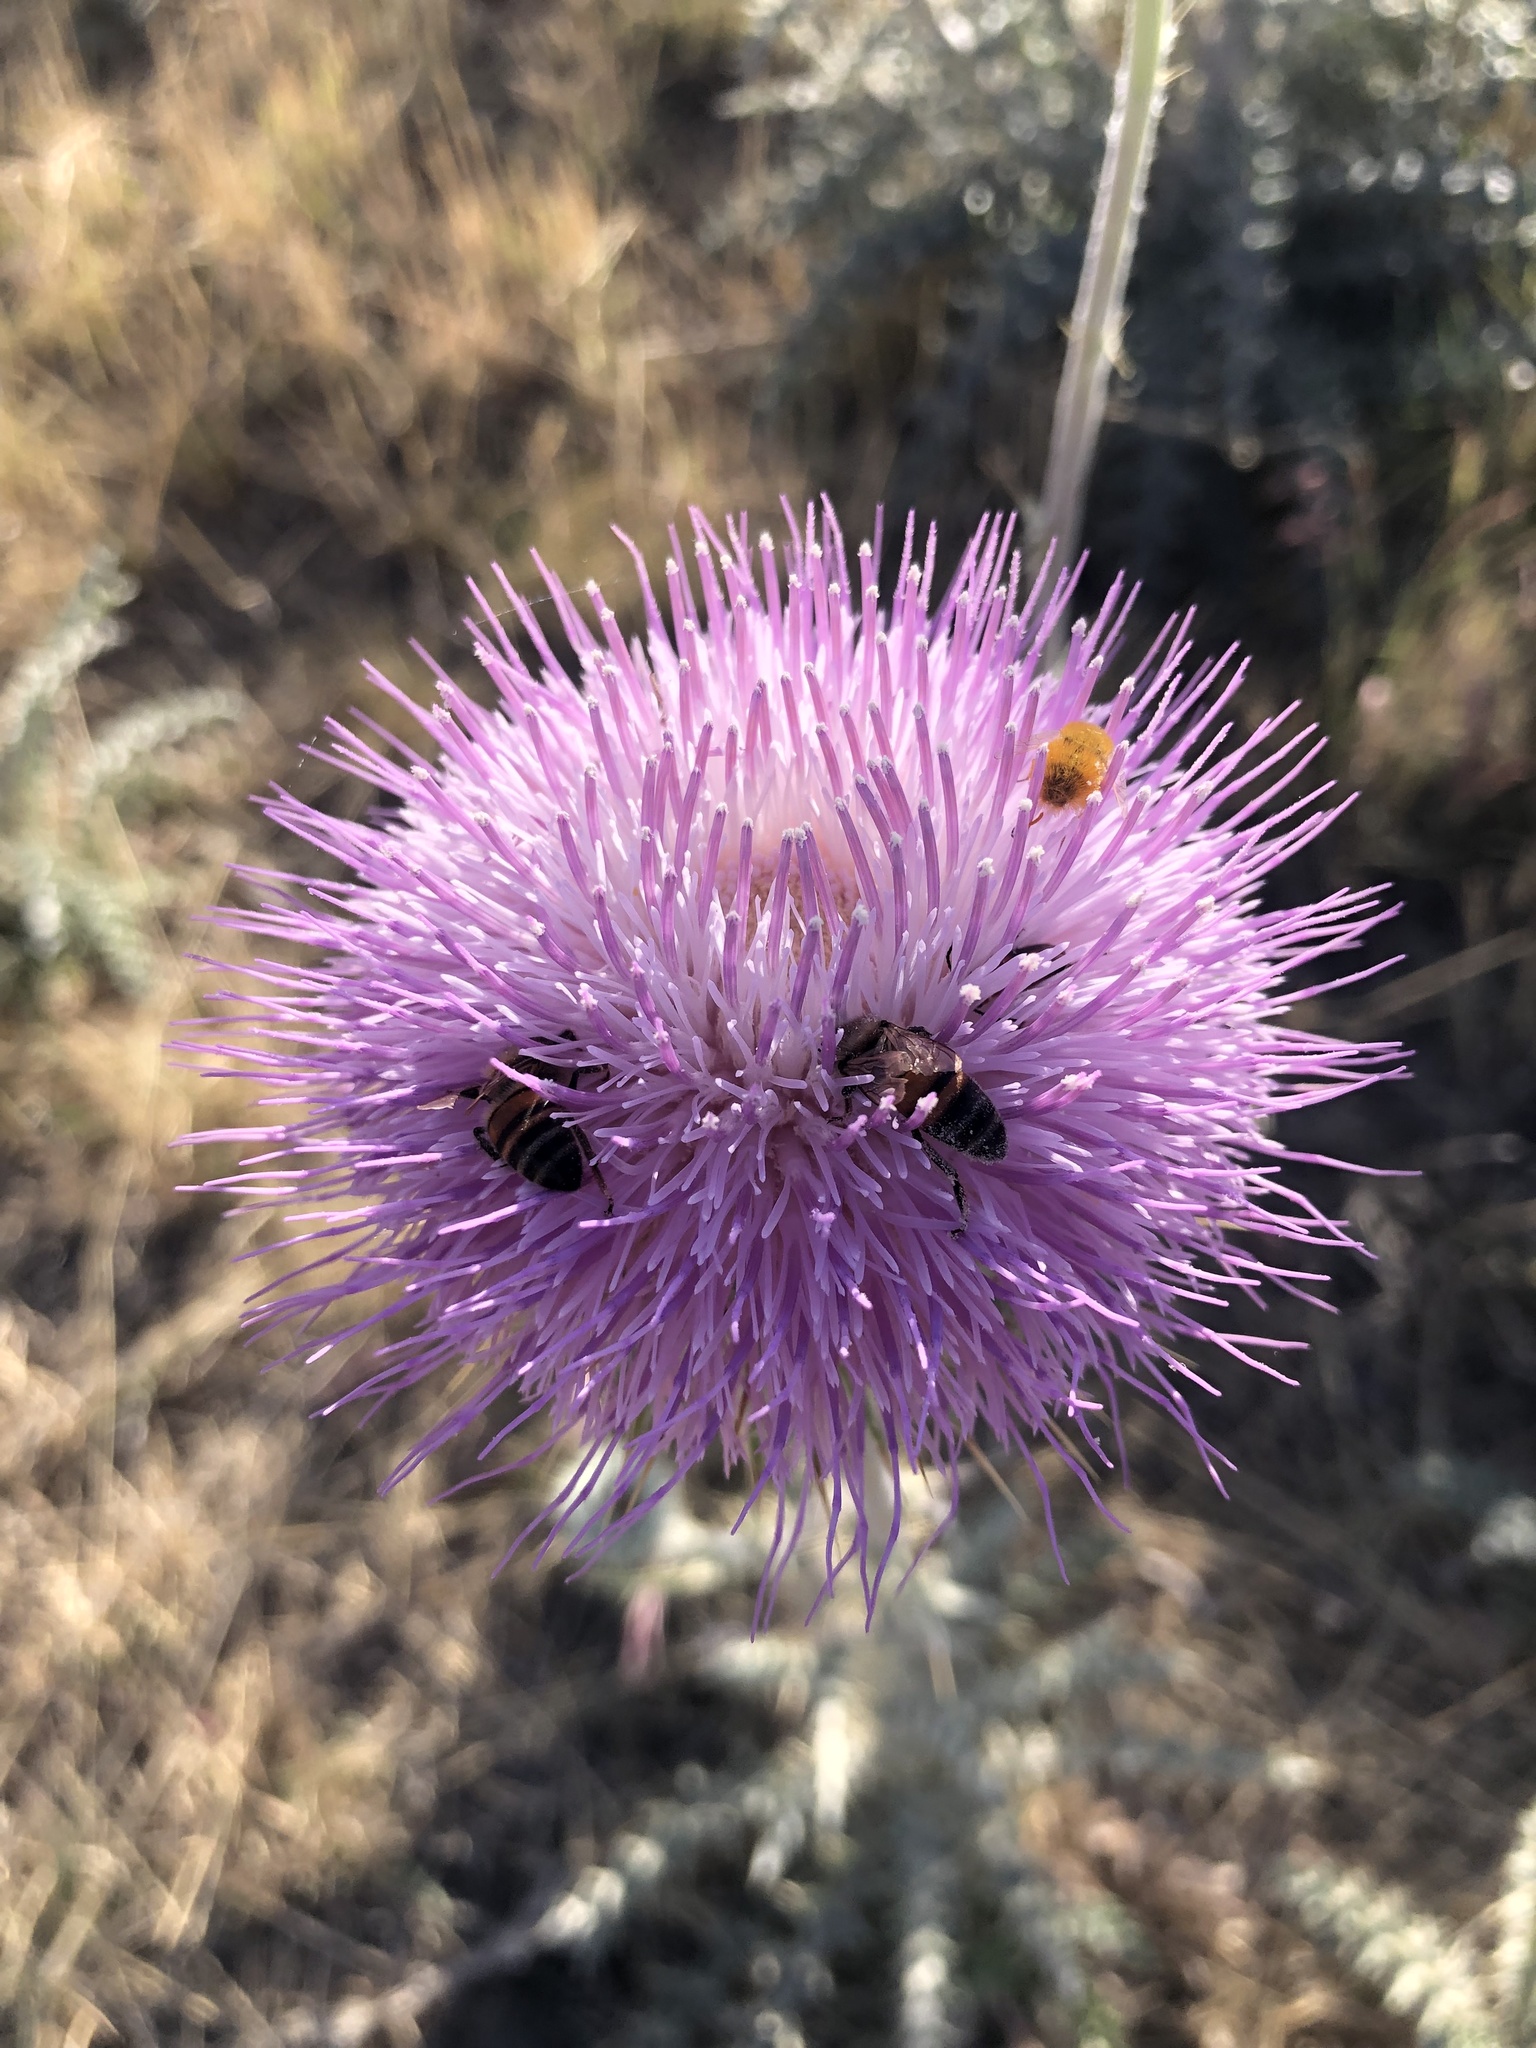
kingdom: Animalia
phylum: Arthropoda
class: Insecta
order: Hymenoptera
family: Apidae
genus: Apis
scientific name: Apis mellifera
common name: Honey bee
